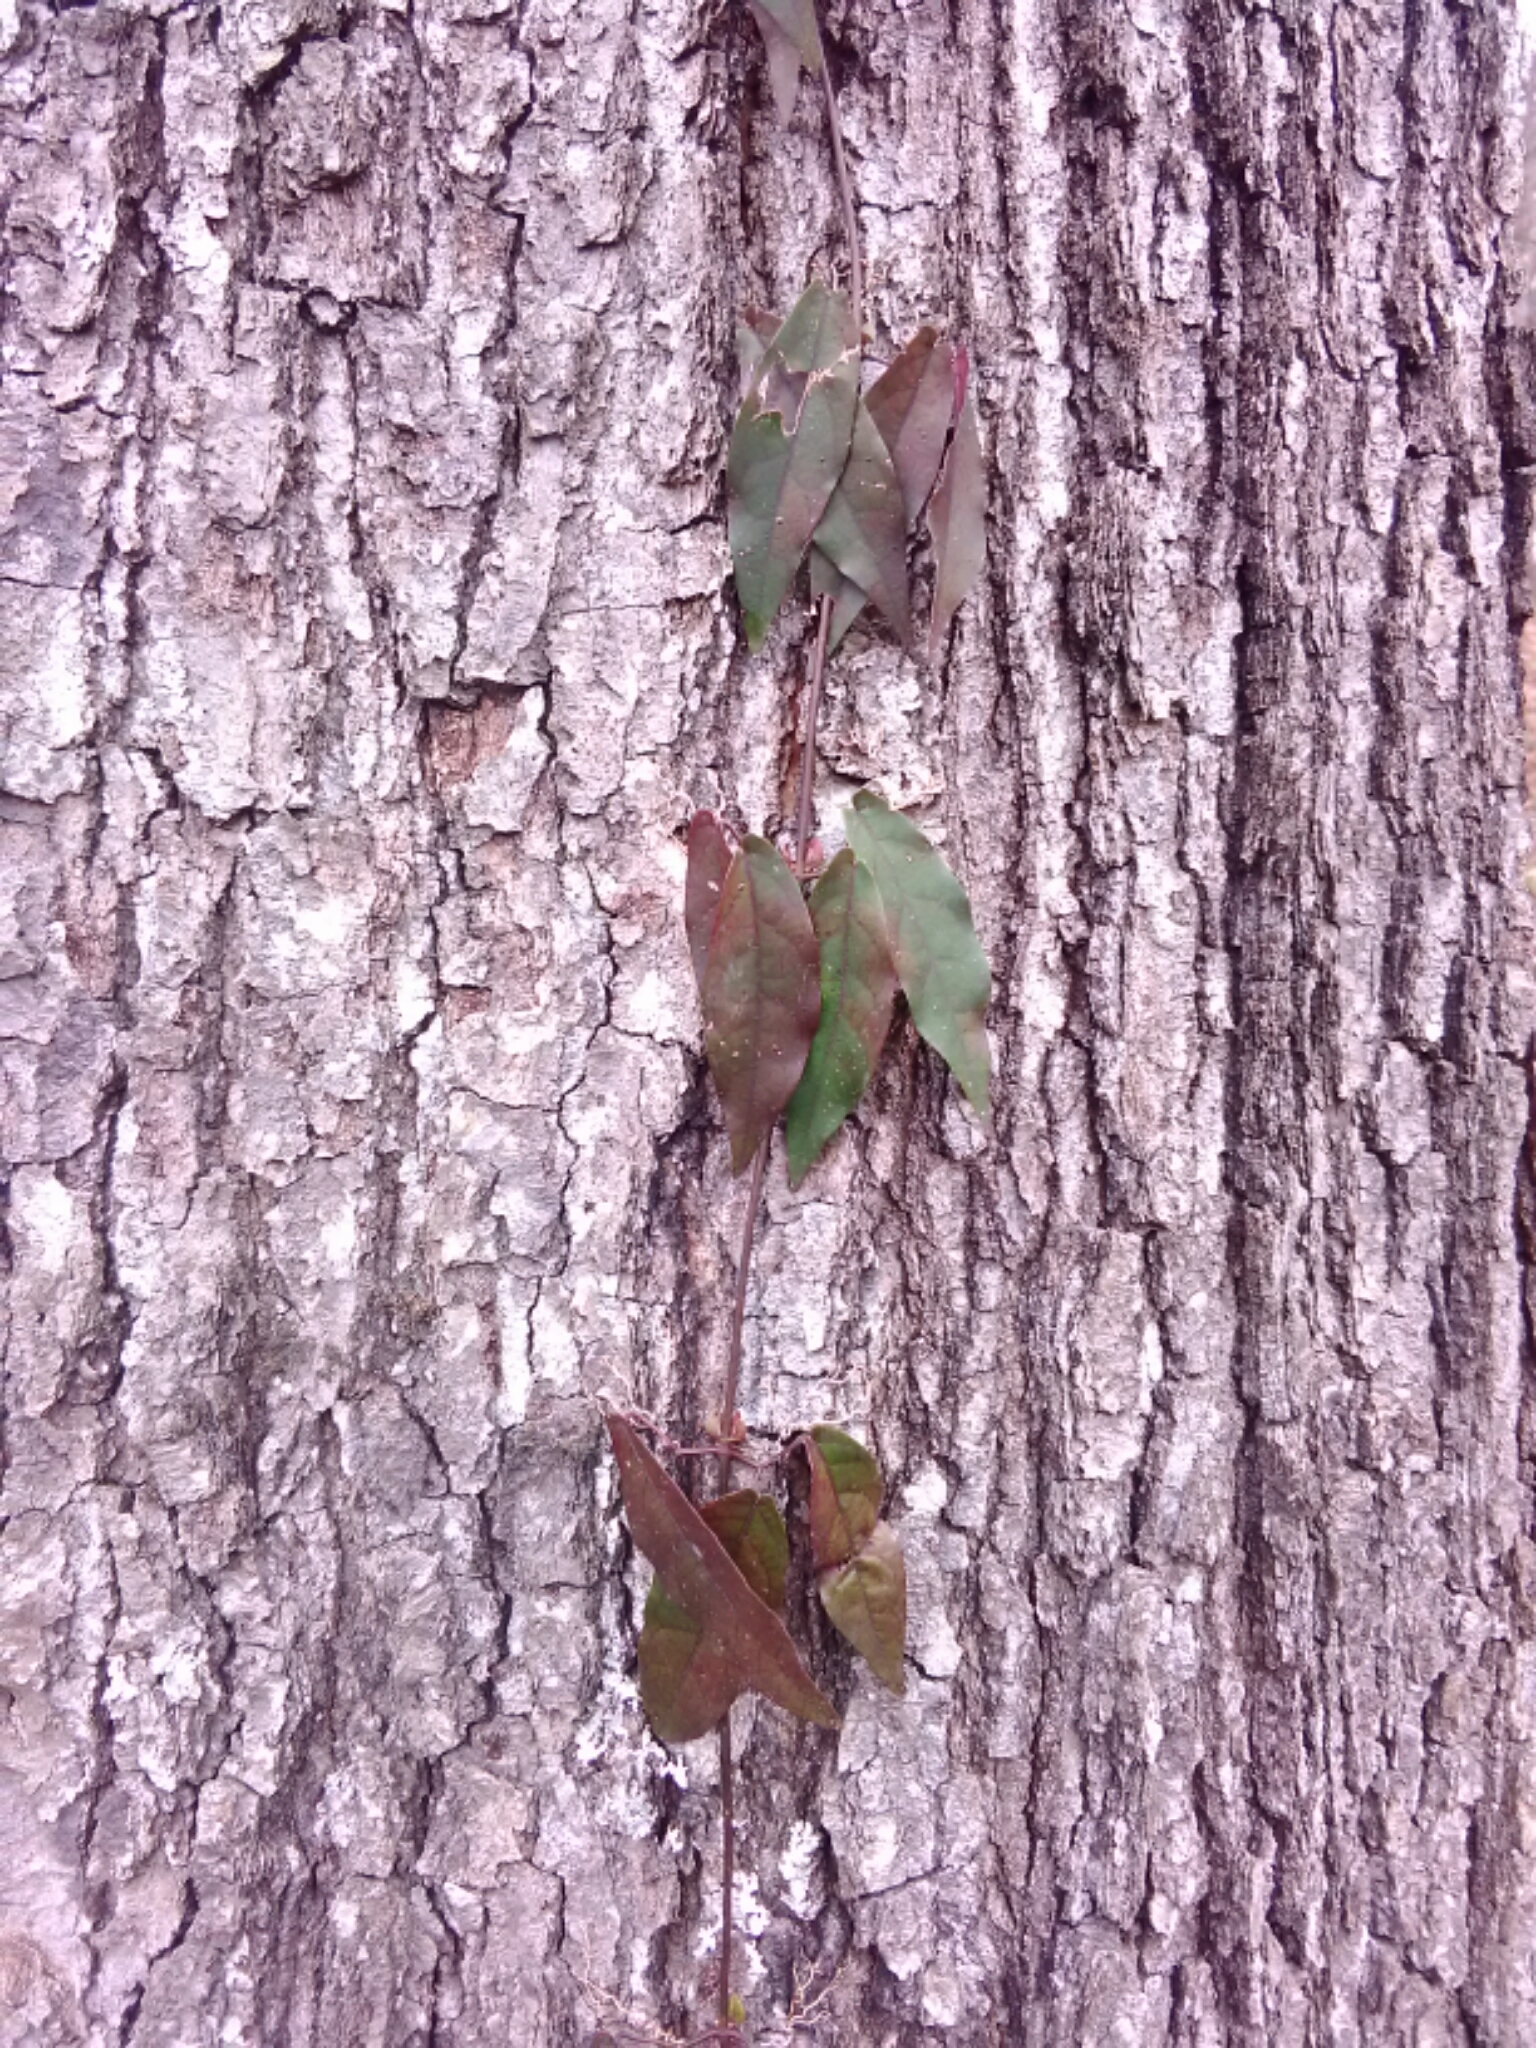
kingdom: Plantae
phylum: Tracheophyta
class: Magnoliopsida
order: Lamiales
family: Bignoniaceae
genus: Bignonia
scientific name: Bignonia capreolata
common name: Crossvine
